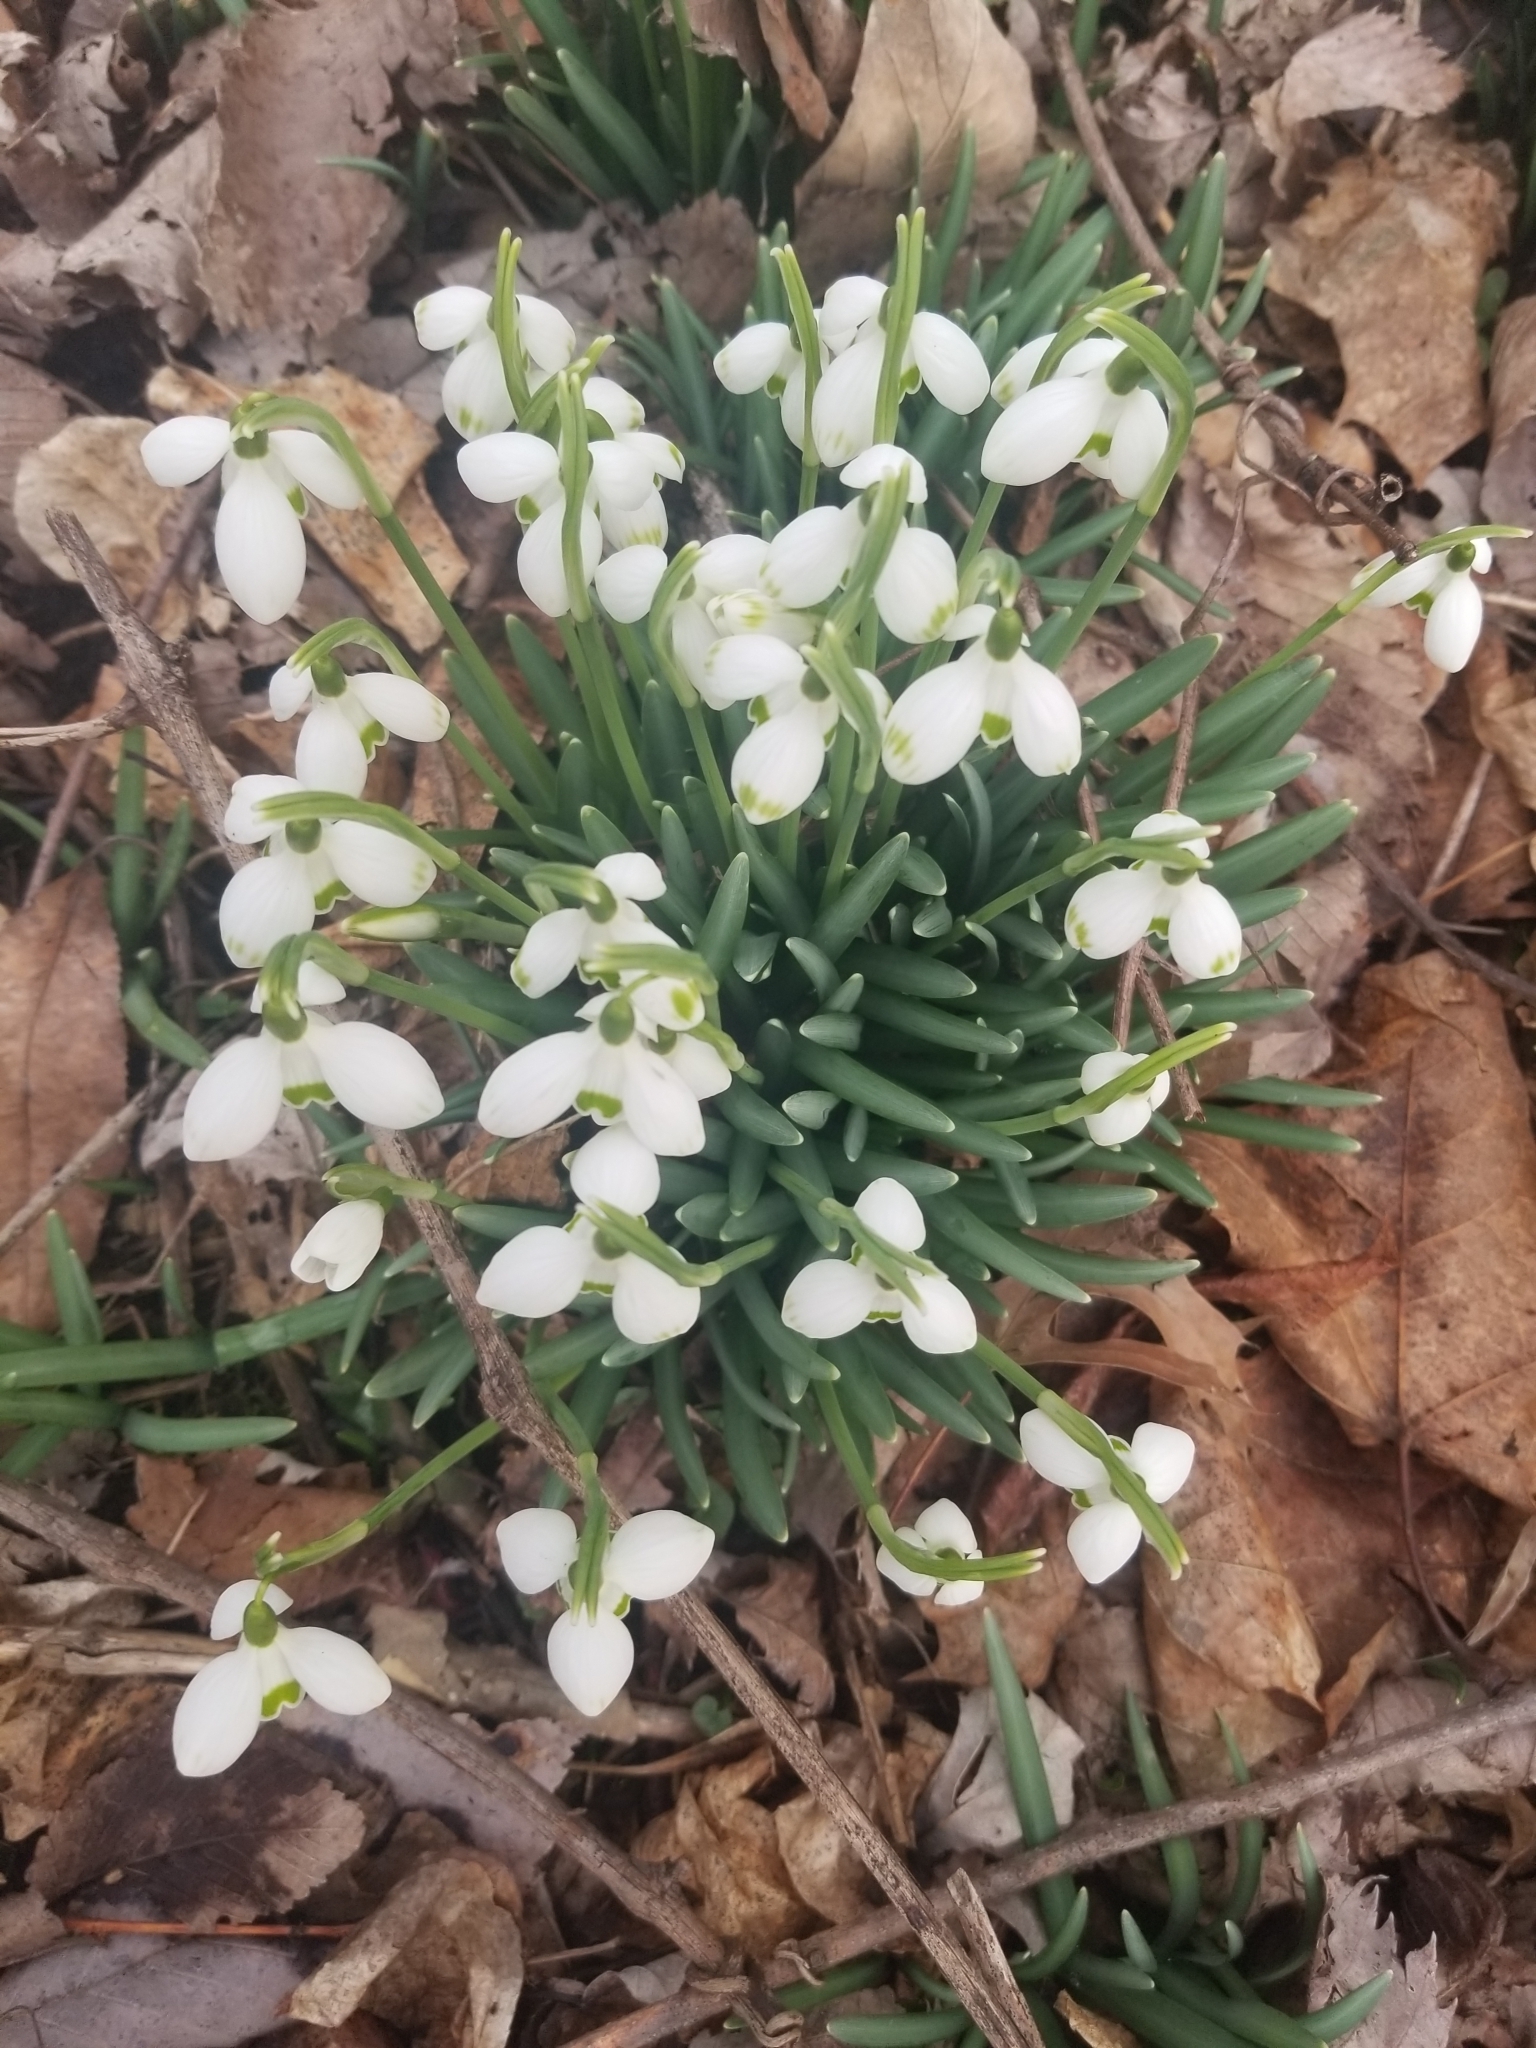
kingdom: Plantae
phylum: Tracheophyta
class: Liliopsida
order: Asparagales
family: Amaryllidaceae
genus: Galanthus
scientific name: Galanthus nivalis
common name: Snowdrop
